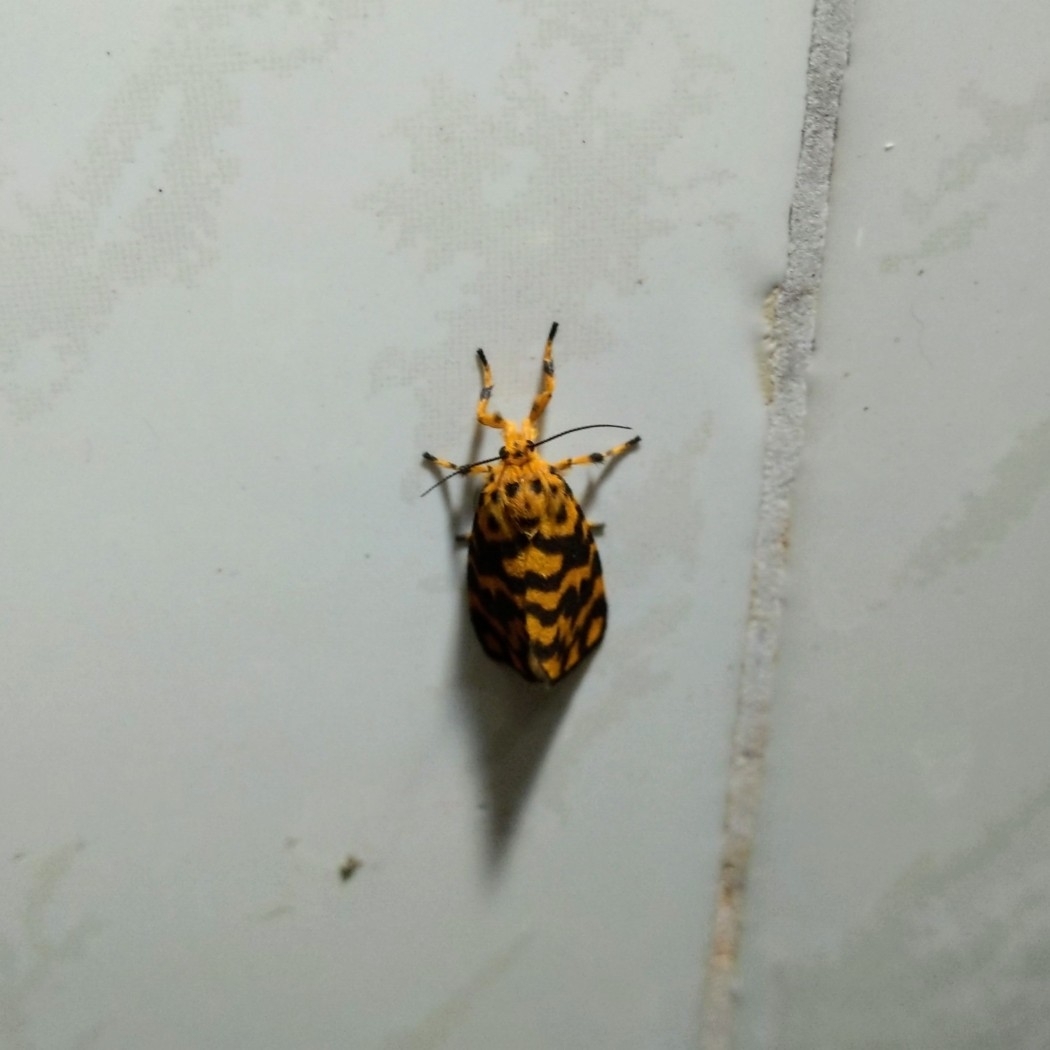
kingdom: Animalia
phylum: Arthropoda
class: Insecta
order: Lepidoptera
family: Erebidae
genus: Nepita
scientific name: Nepita conferta
